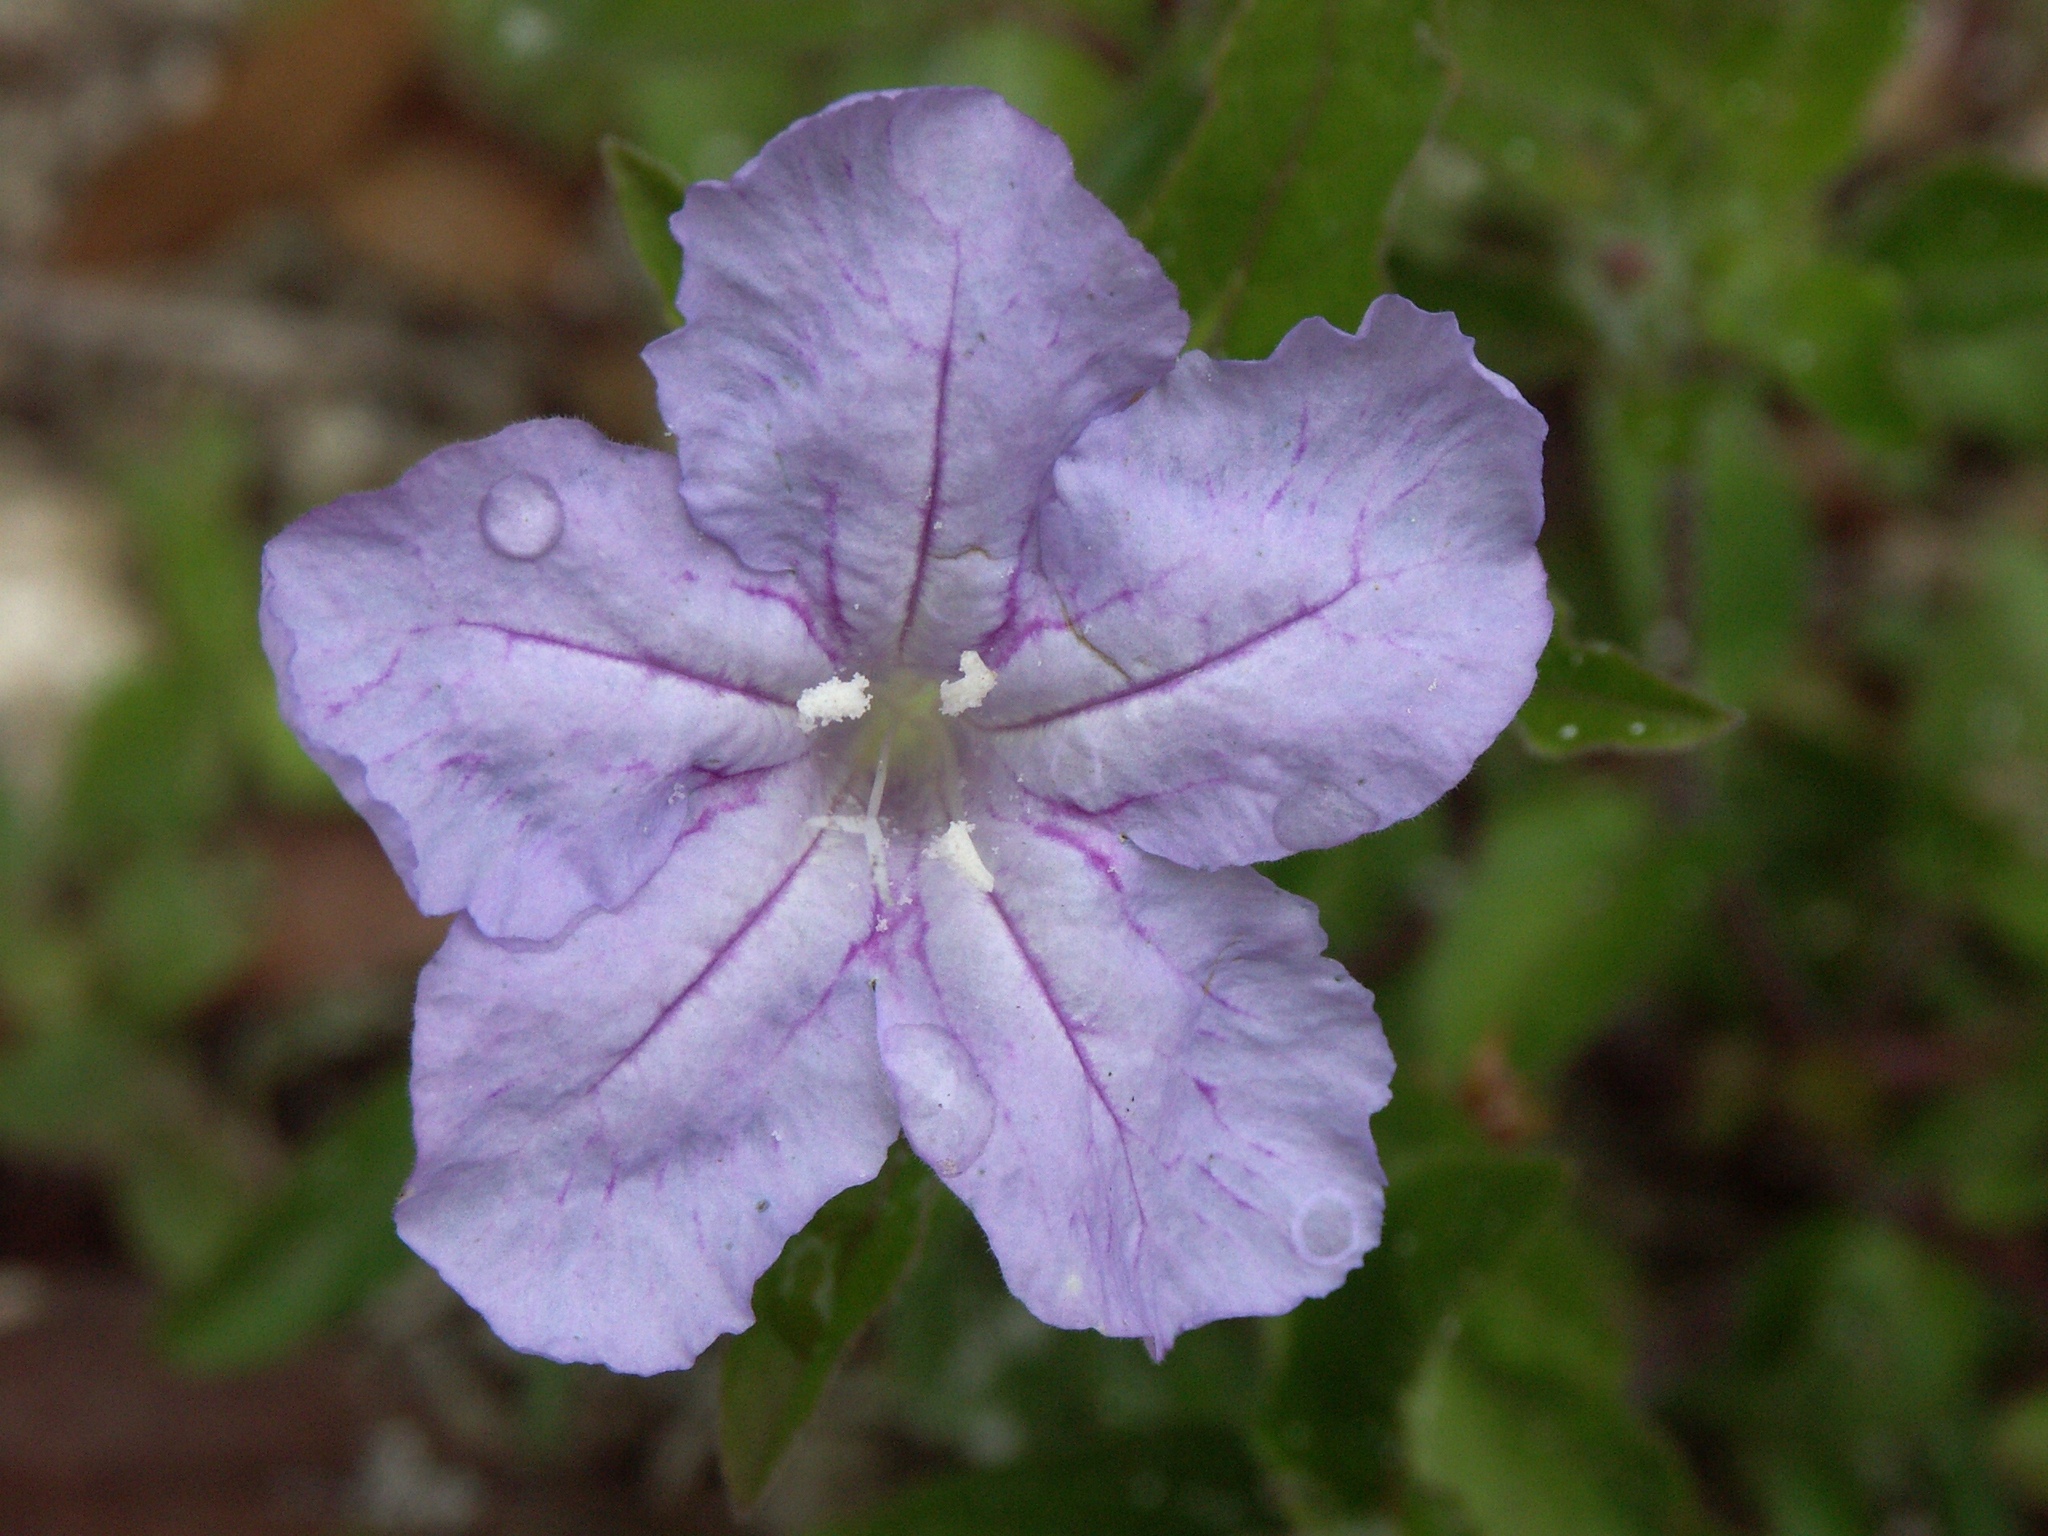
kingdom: Plantae
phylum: Tracheophyta
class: Magnoliopsida
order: Lamiales
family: Acanthaceae
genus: Ruellia
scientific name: Ruellia caroliniensis
